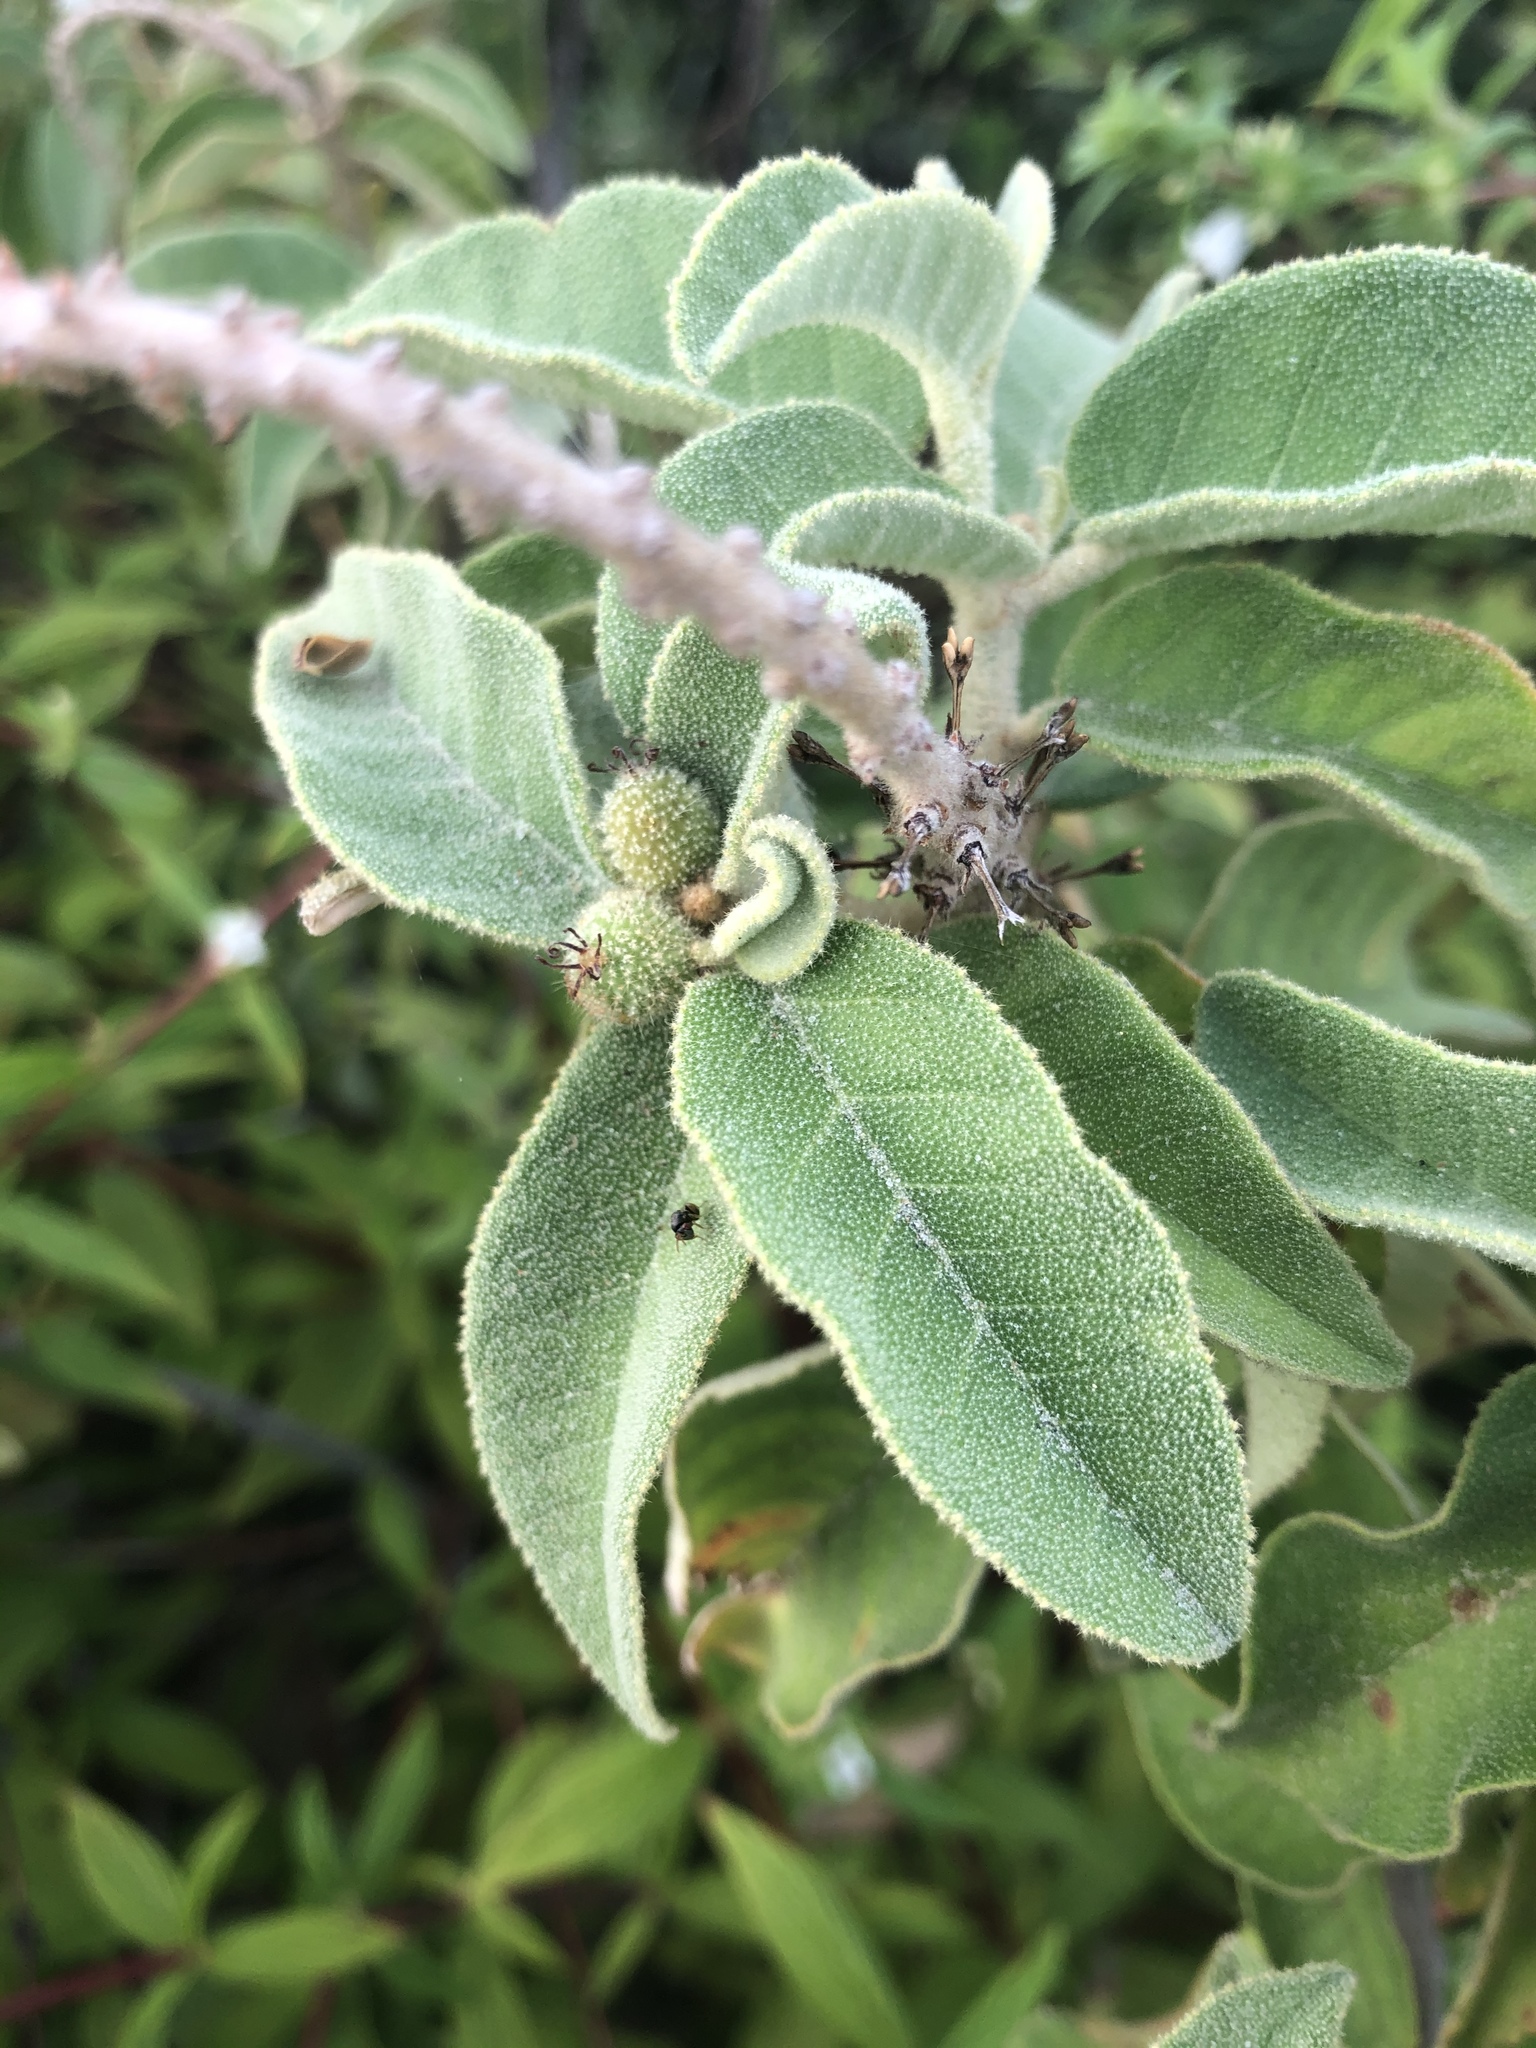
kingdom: Plantae
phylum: Tracheophyta
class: Magnoliopsida
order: Malpighiales
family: Euphorbiaceae
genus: Croton
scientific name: Croton heliotropiifolius
